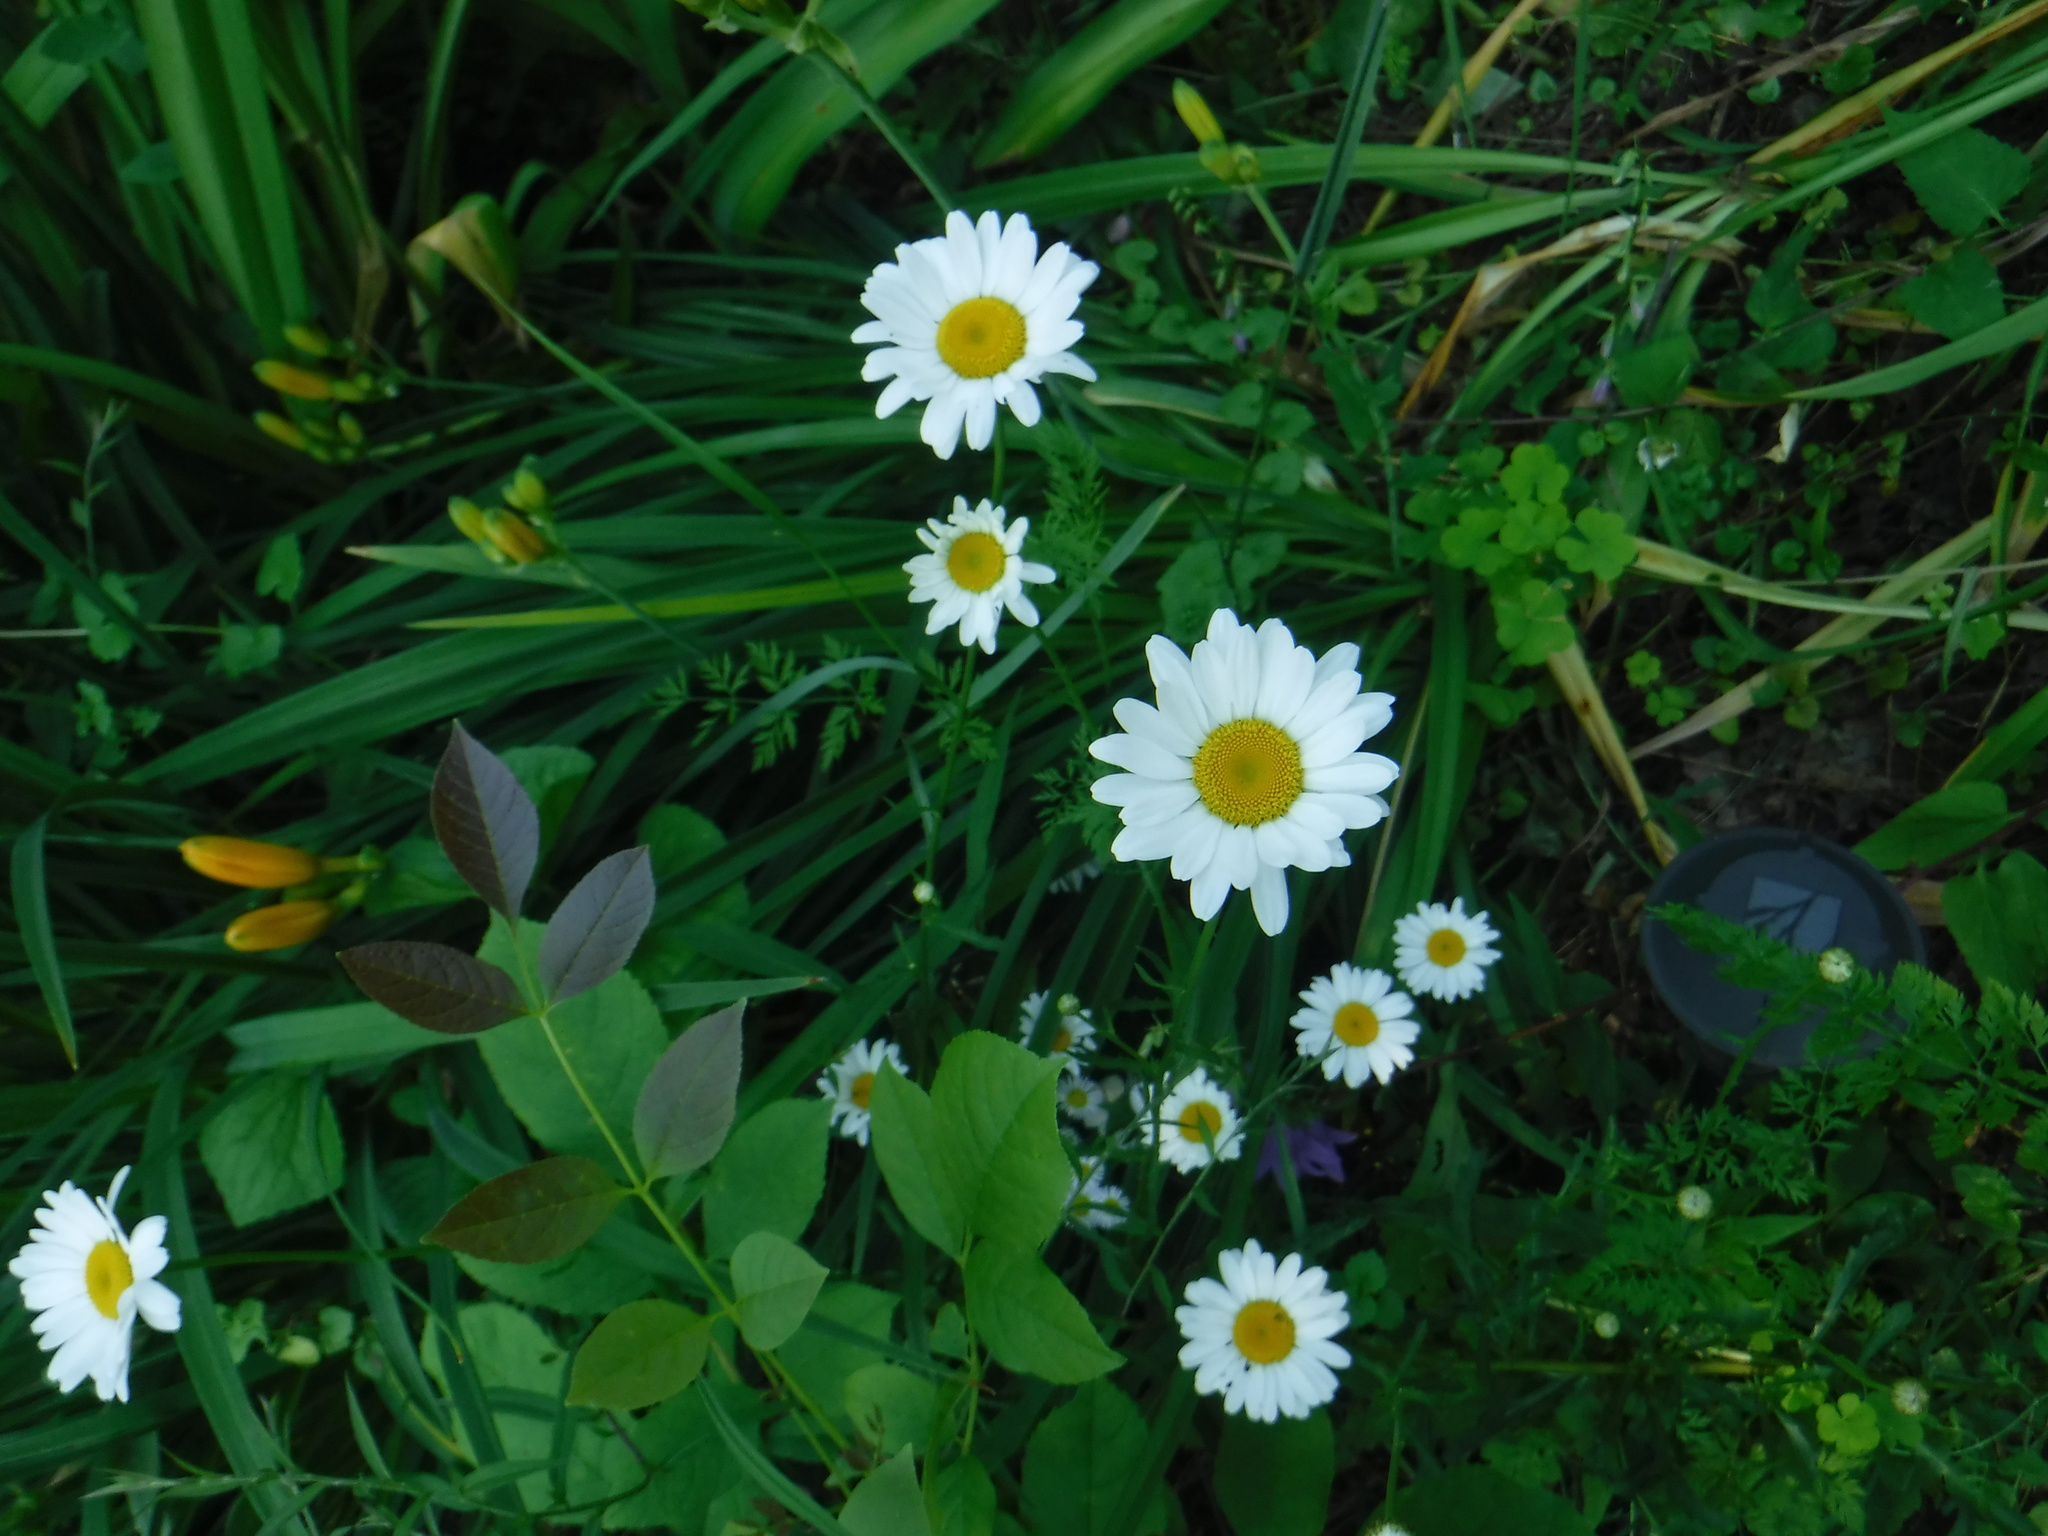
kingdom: Plantae
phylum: Tracheophyta
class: Magnoliopsida
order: Asterales
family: Asteraceae
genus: Leucanthemum
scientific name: Leucanthemum vulgare
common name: Oxeye daisy
